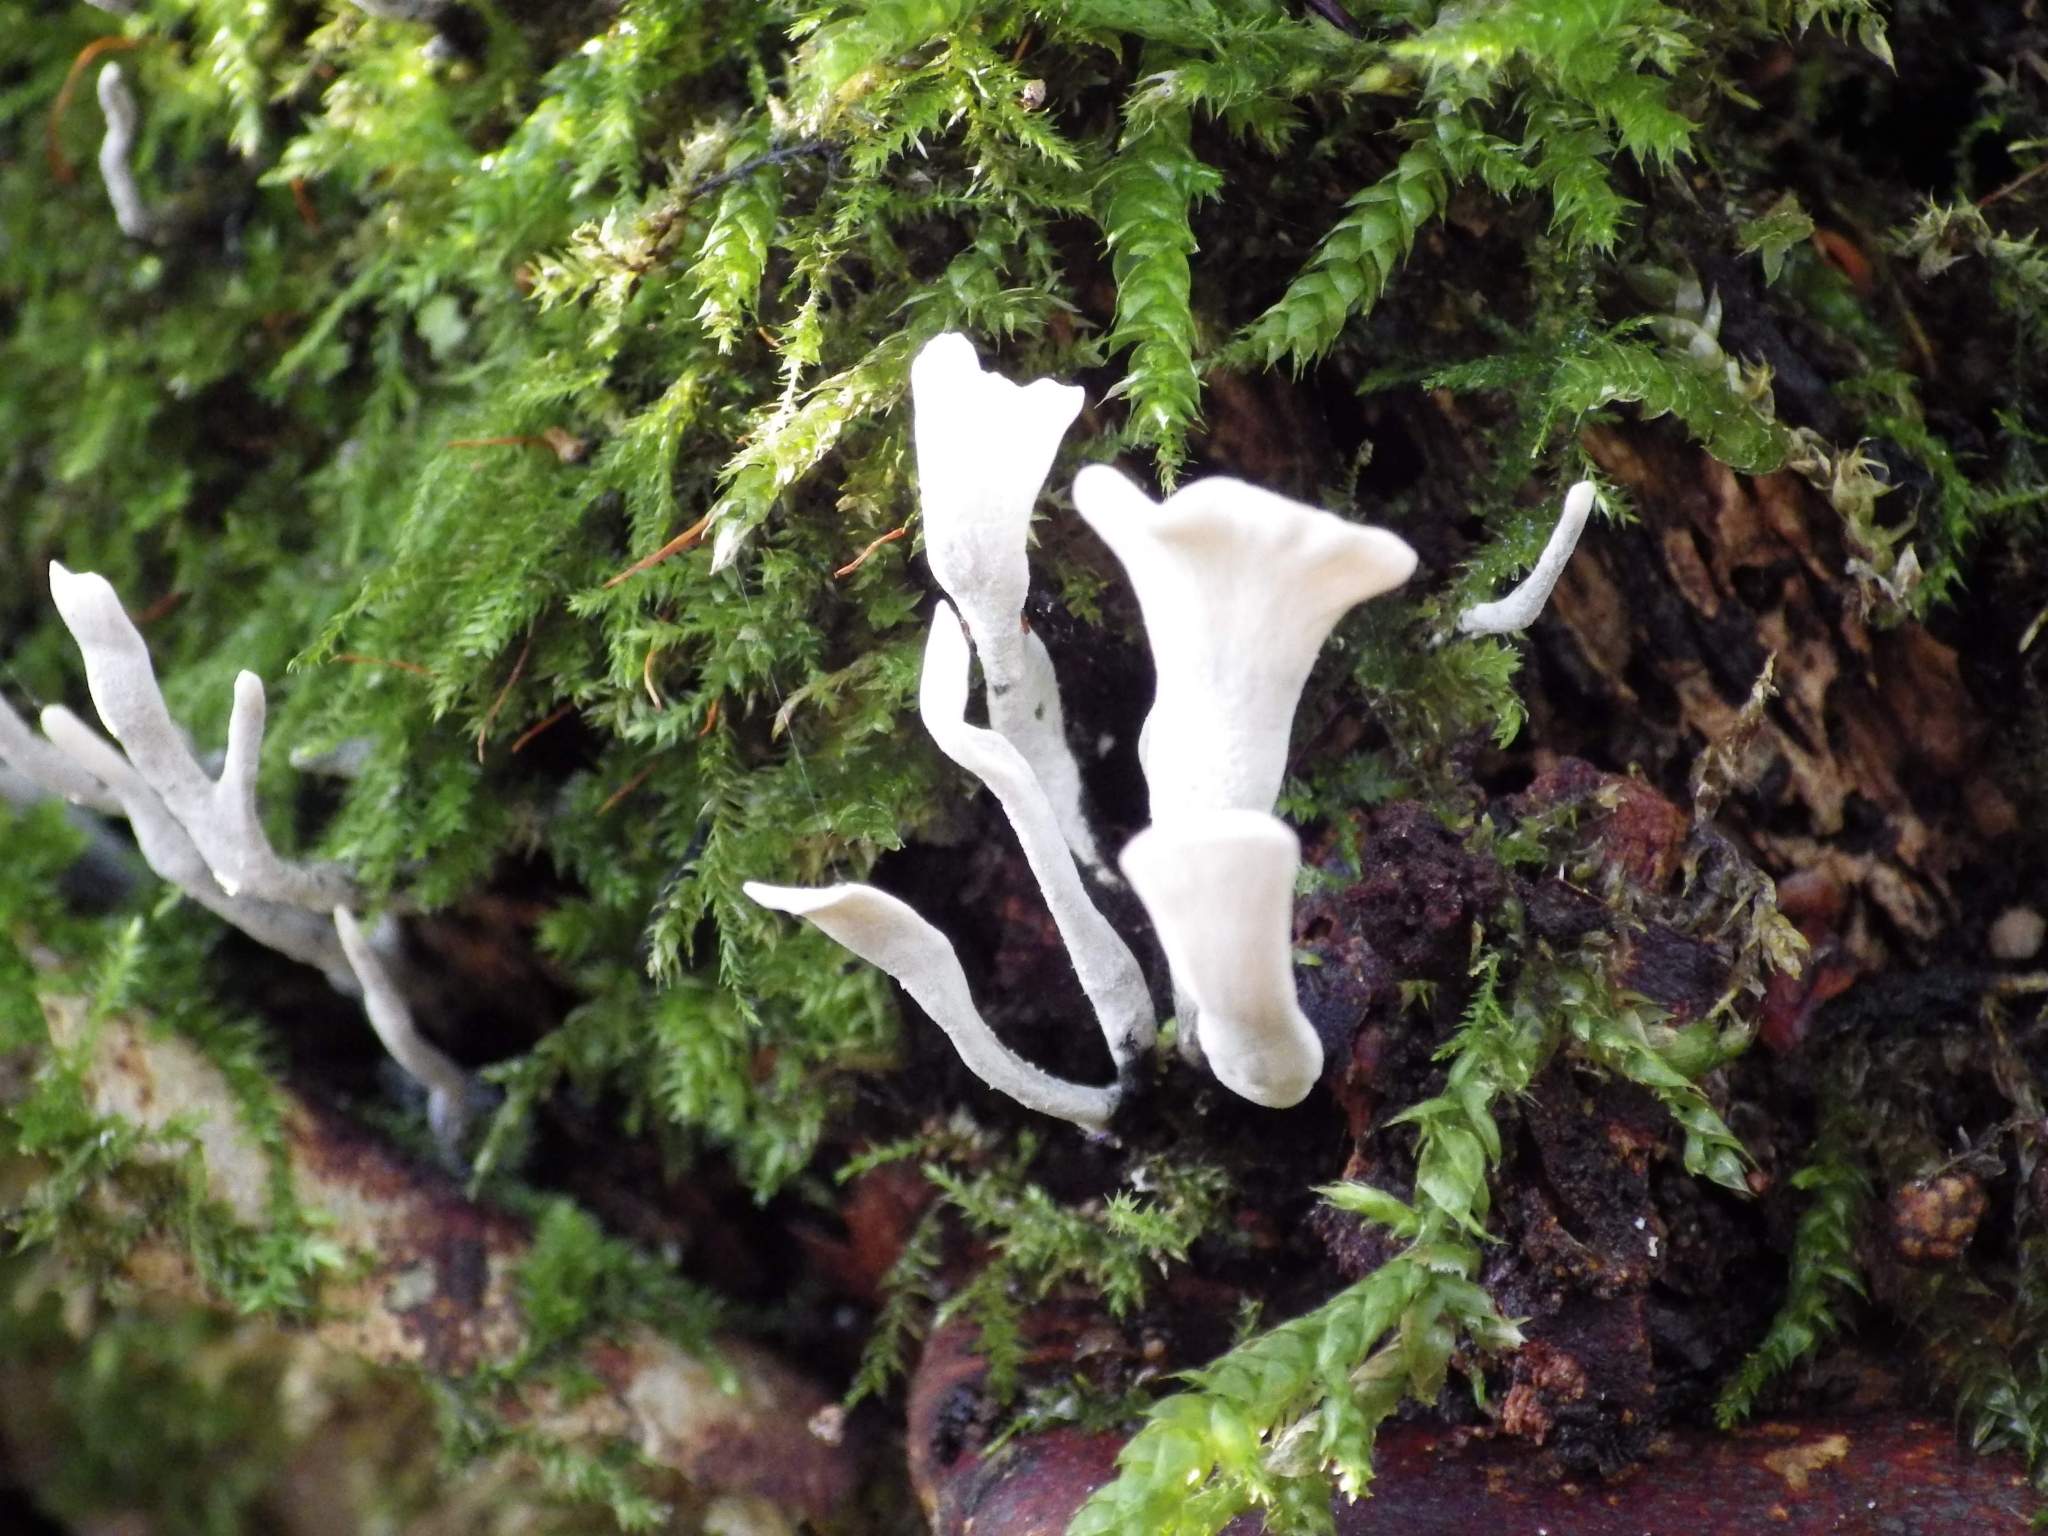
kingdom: Fungi
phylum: Ascomycota
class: Sordariomycetes
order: Xylariales
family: Xylariaceae
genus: Xylaria
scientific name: Xylaria hypoxylon
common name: Candle-snuff fungus
